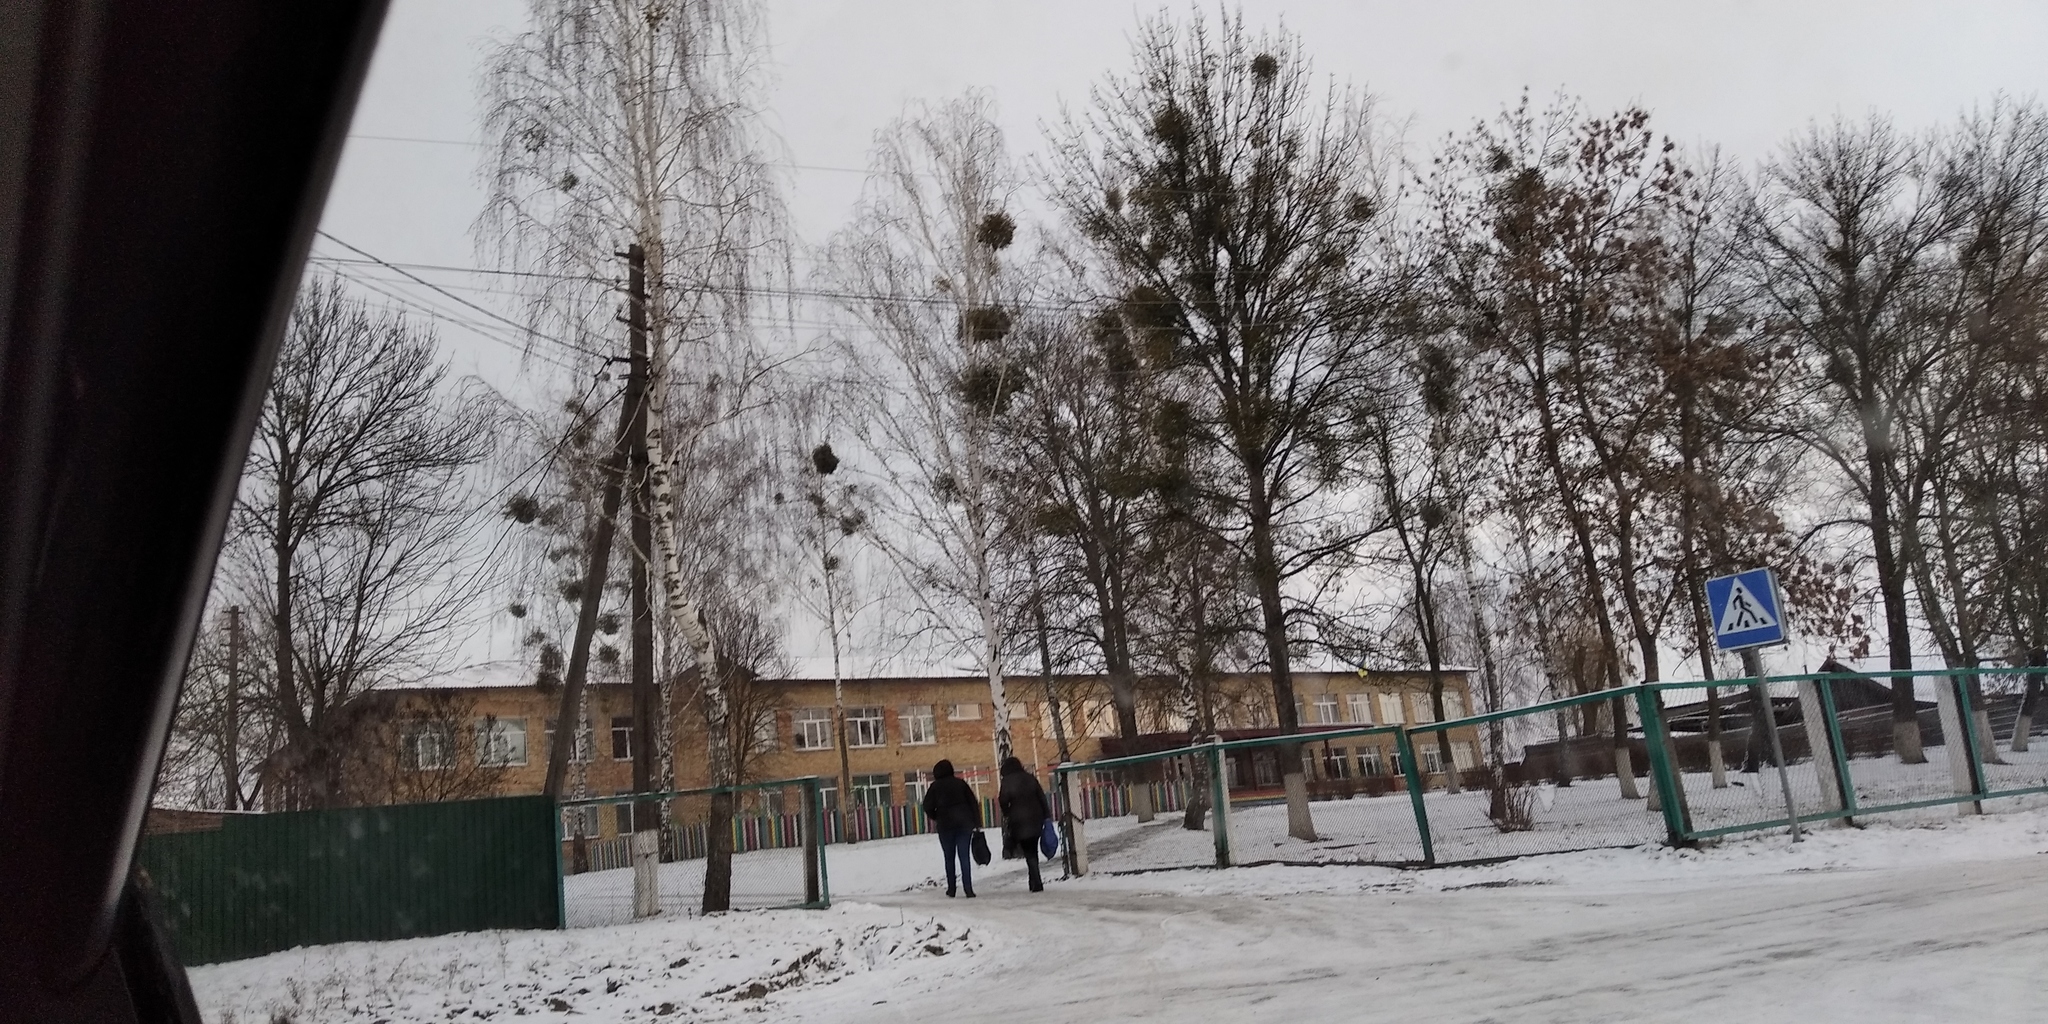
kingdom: Plantae
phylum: Tracheophyta
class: Magnoliopsida
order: Santalales
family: Viscaceae
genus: Viscum
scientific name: Viscum album
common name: Mistletoe
